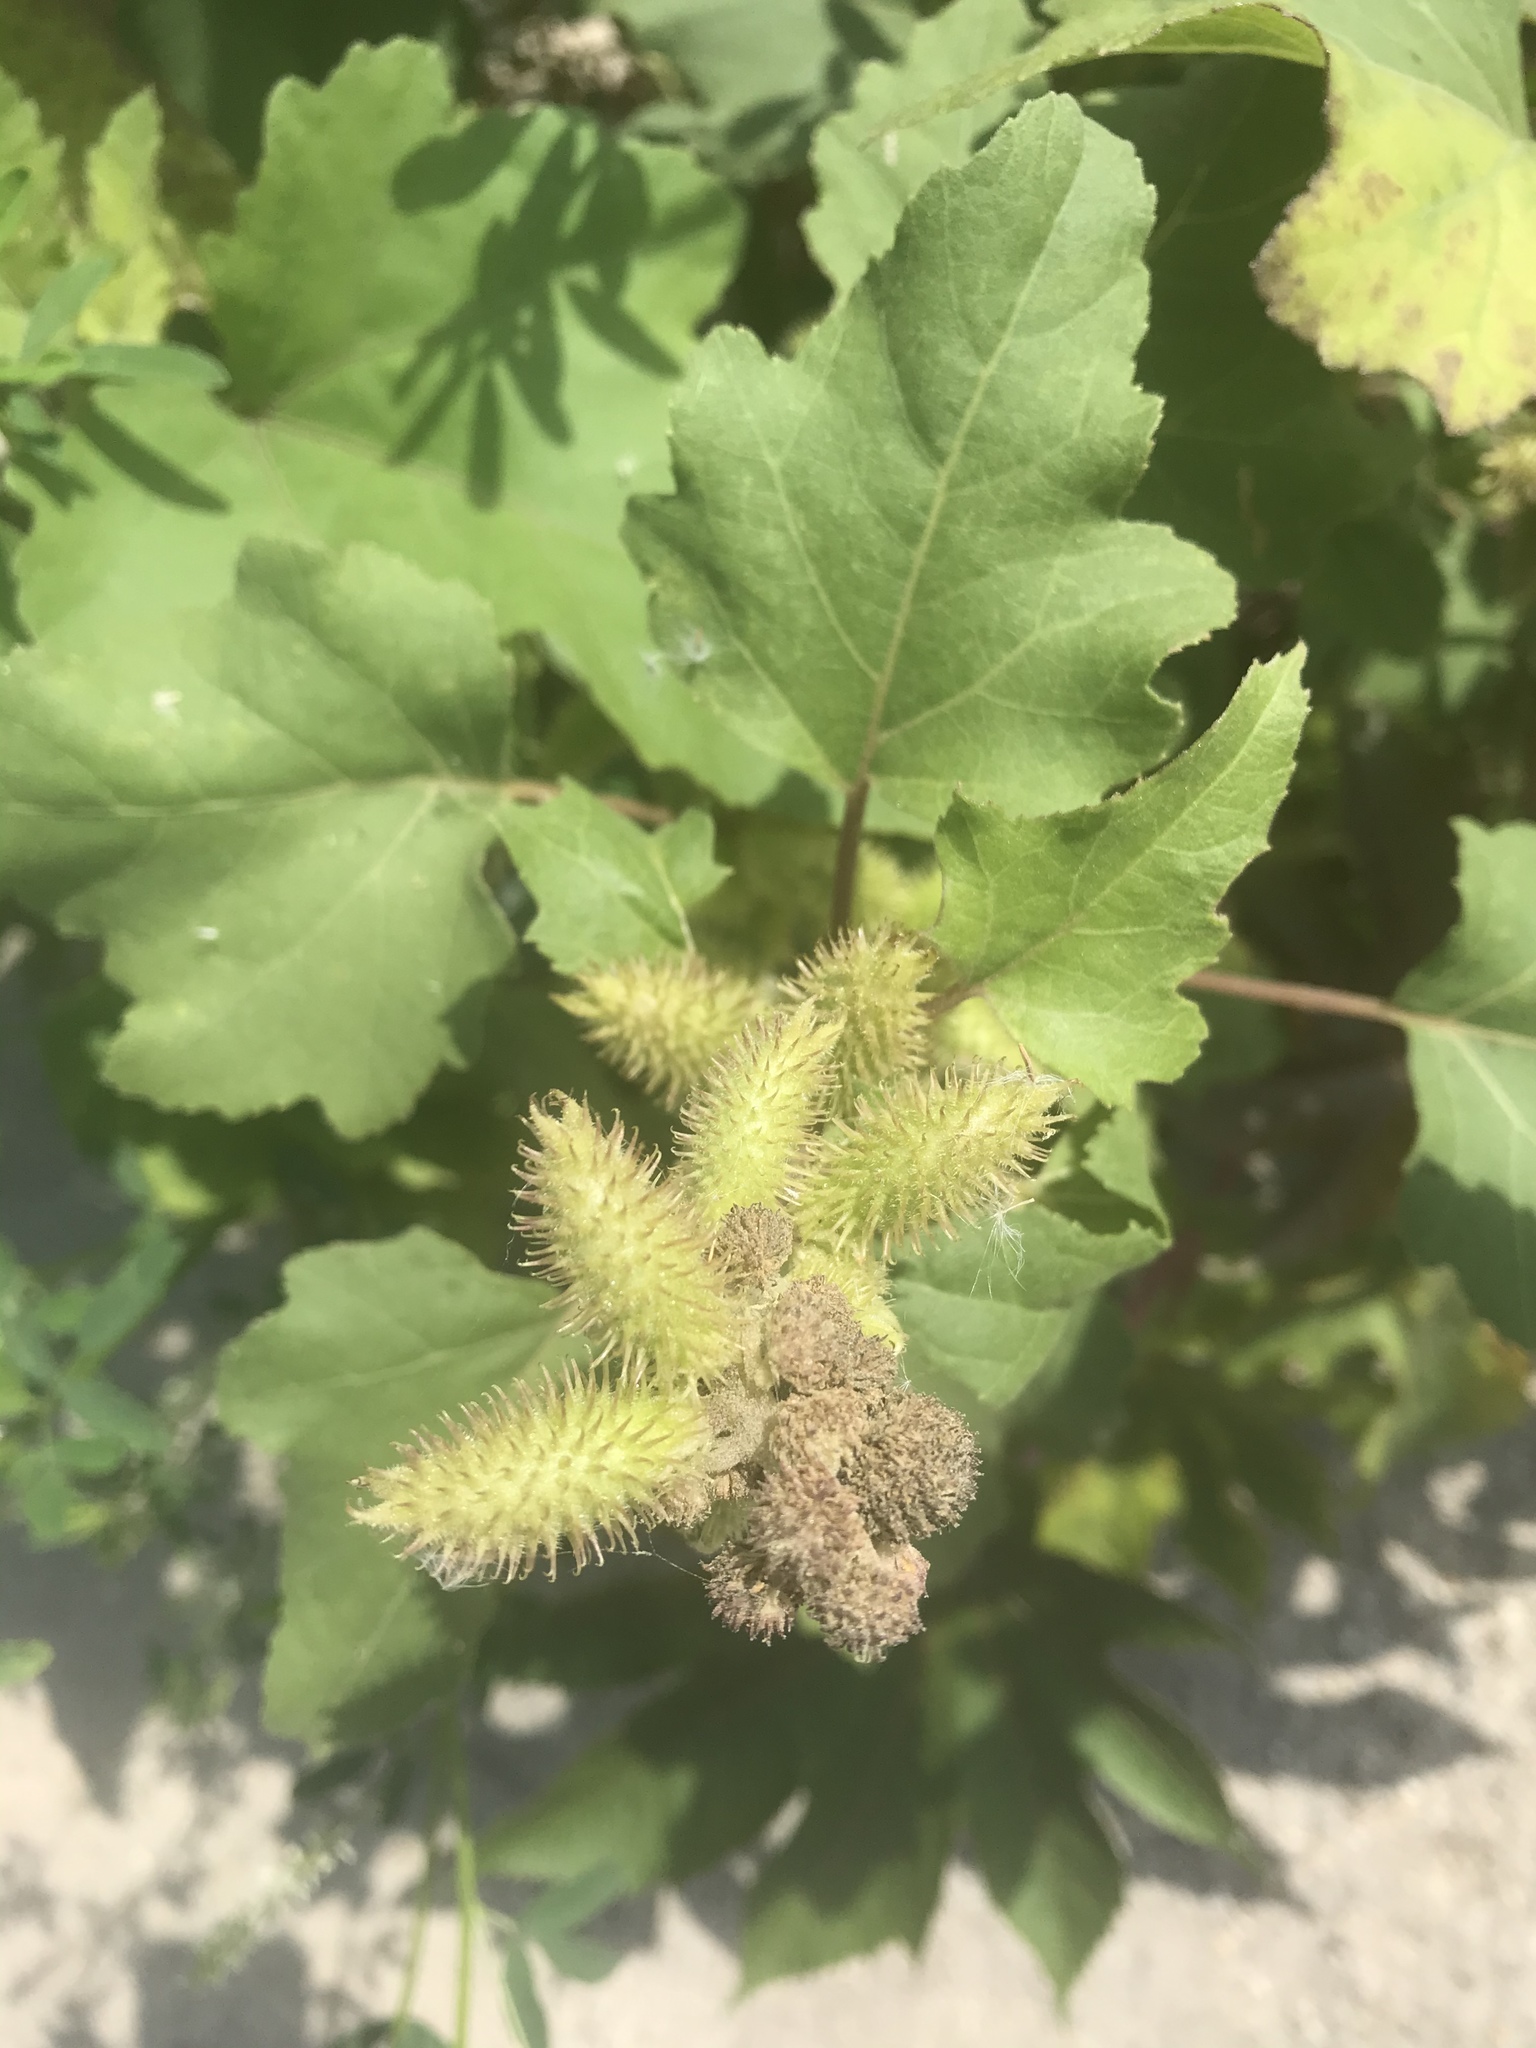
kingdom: Plantae
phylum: Tracheophyta
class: Magnoliopsida
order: Asterales
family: Asteraceae
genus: Xanthium
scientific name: Xanthium strumarium
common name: Rough cocklebur
